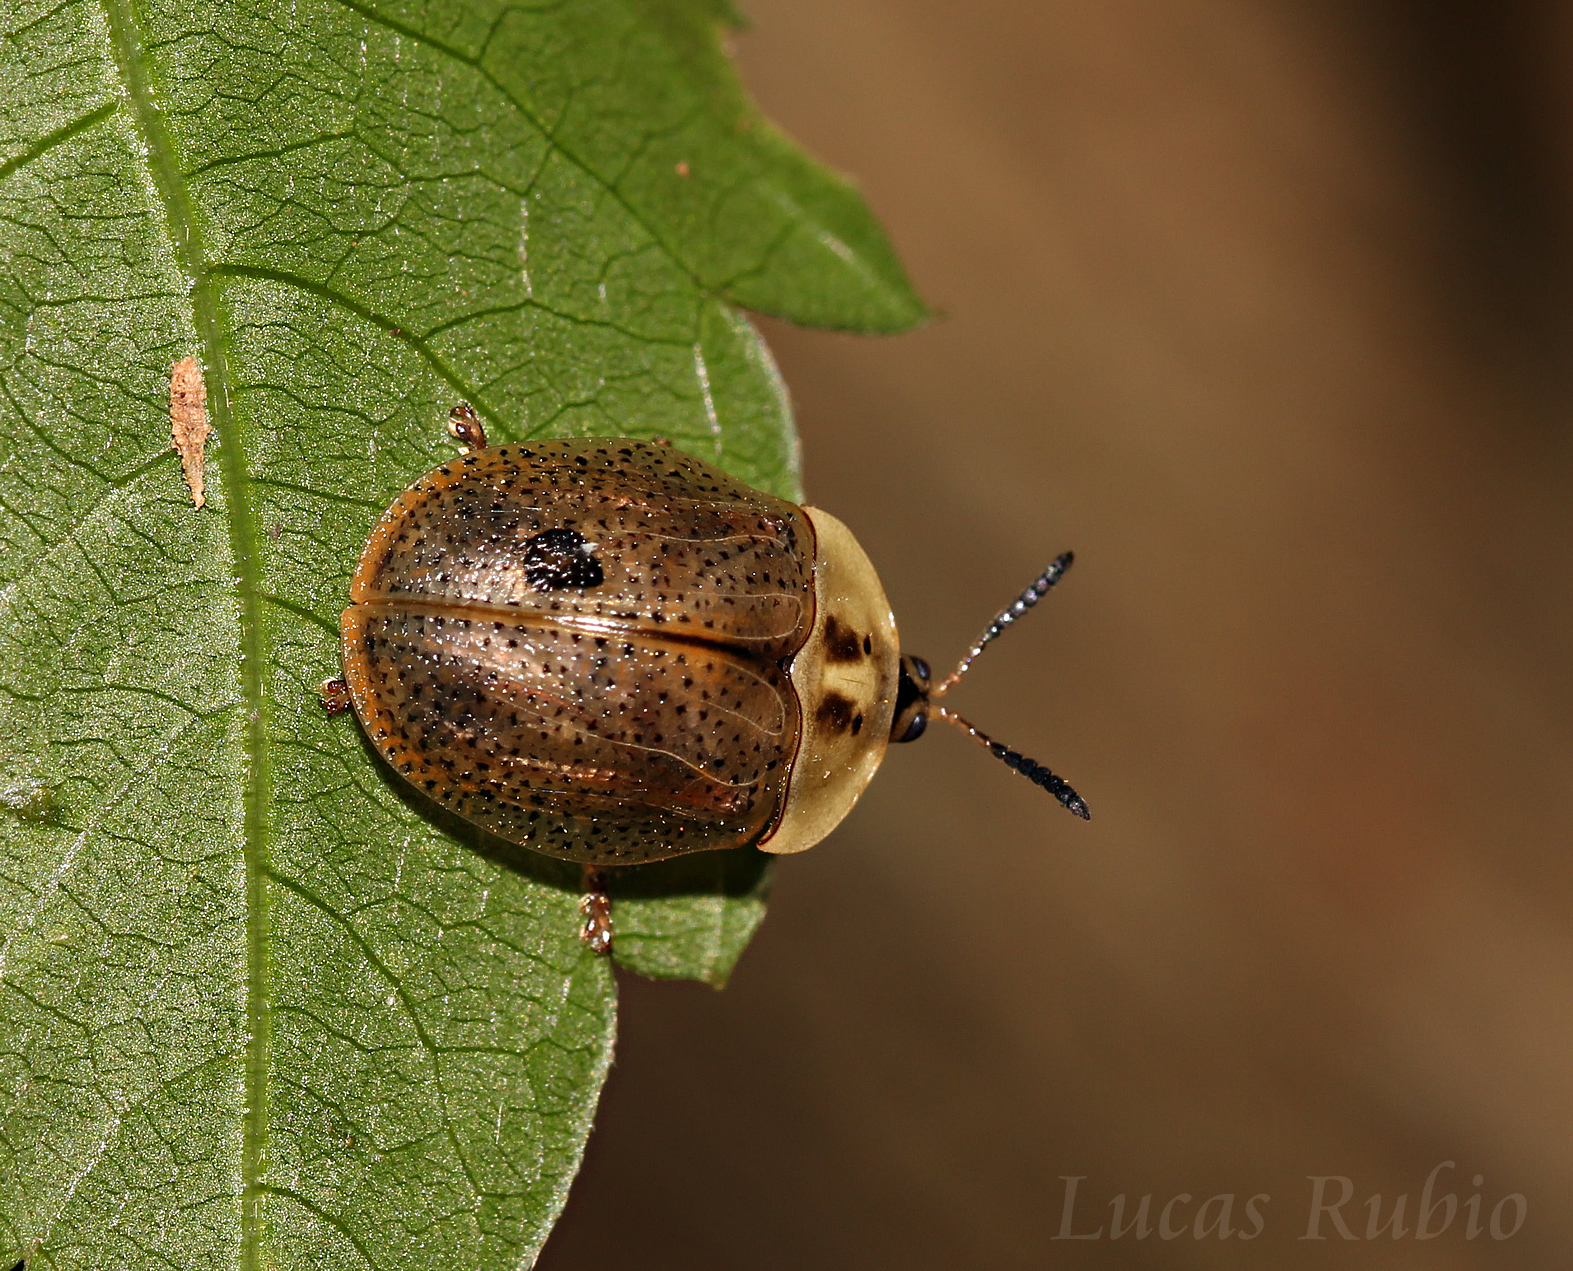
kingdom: Animalia
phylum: Arthropoda
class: Insecta
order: Coleoptera
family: Chrysomelidae
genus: Chelymorpha
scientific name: Chelymorpha indigesta
